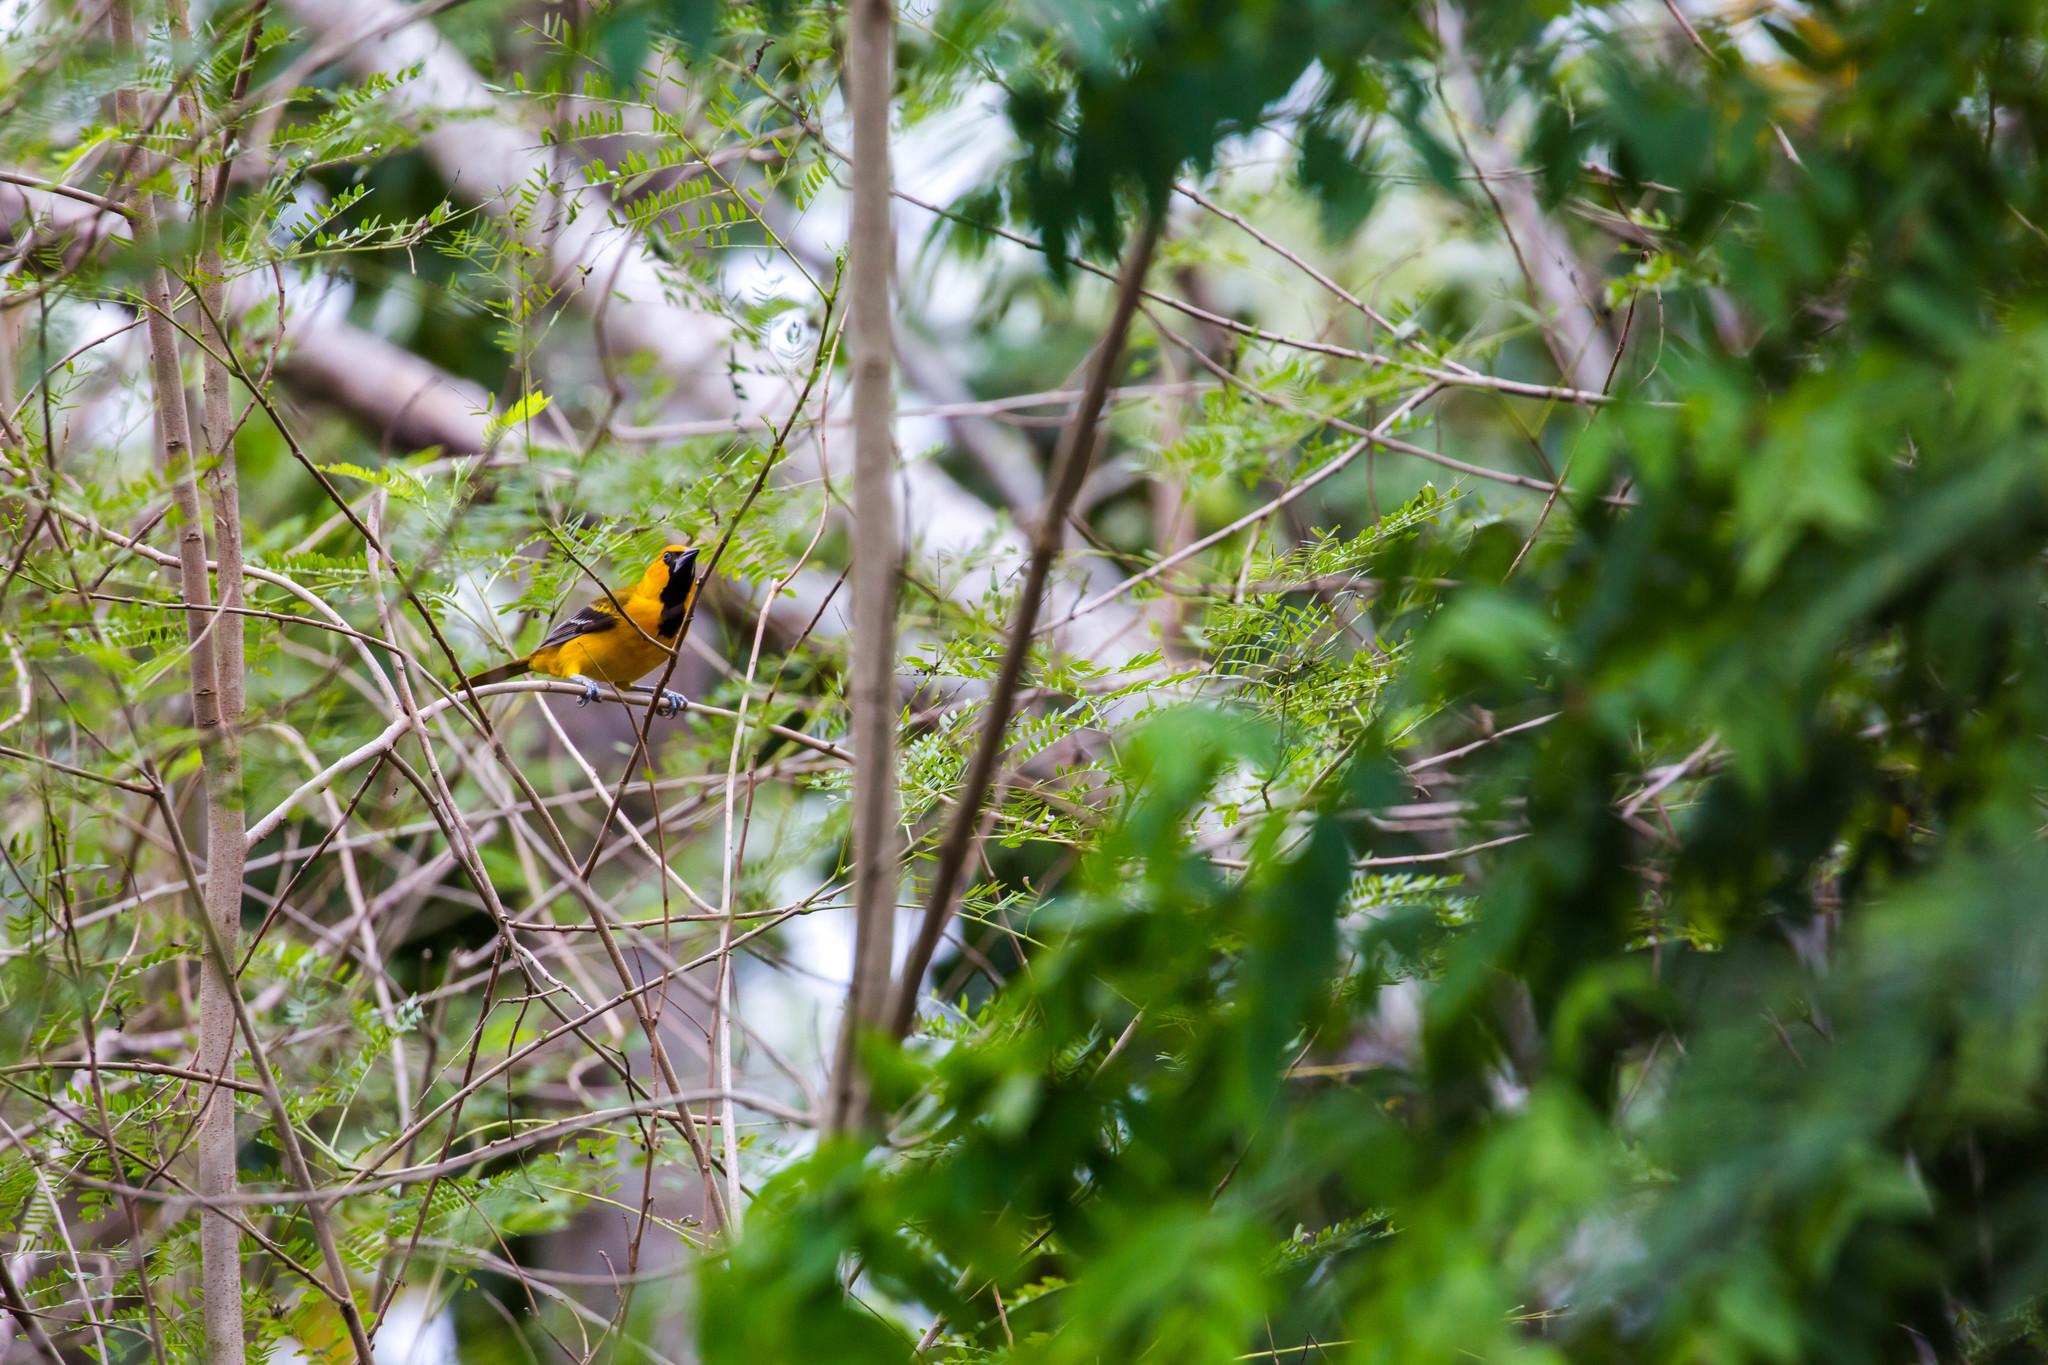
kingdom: Animalia
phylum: Chordata
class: Aves
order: Passeriformes
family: Icteridae
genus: Icterus
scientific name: Icterus gularis
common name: Altamira oriole
